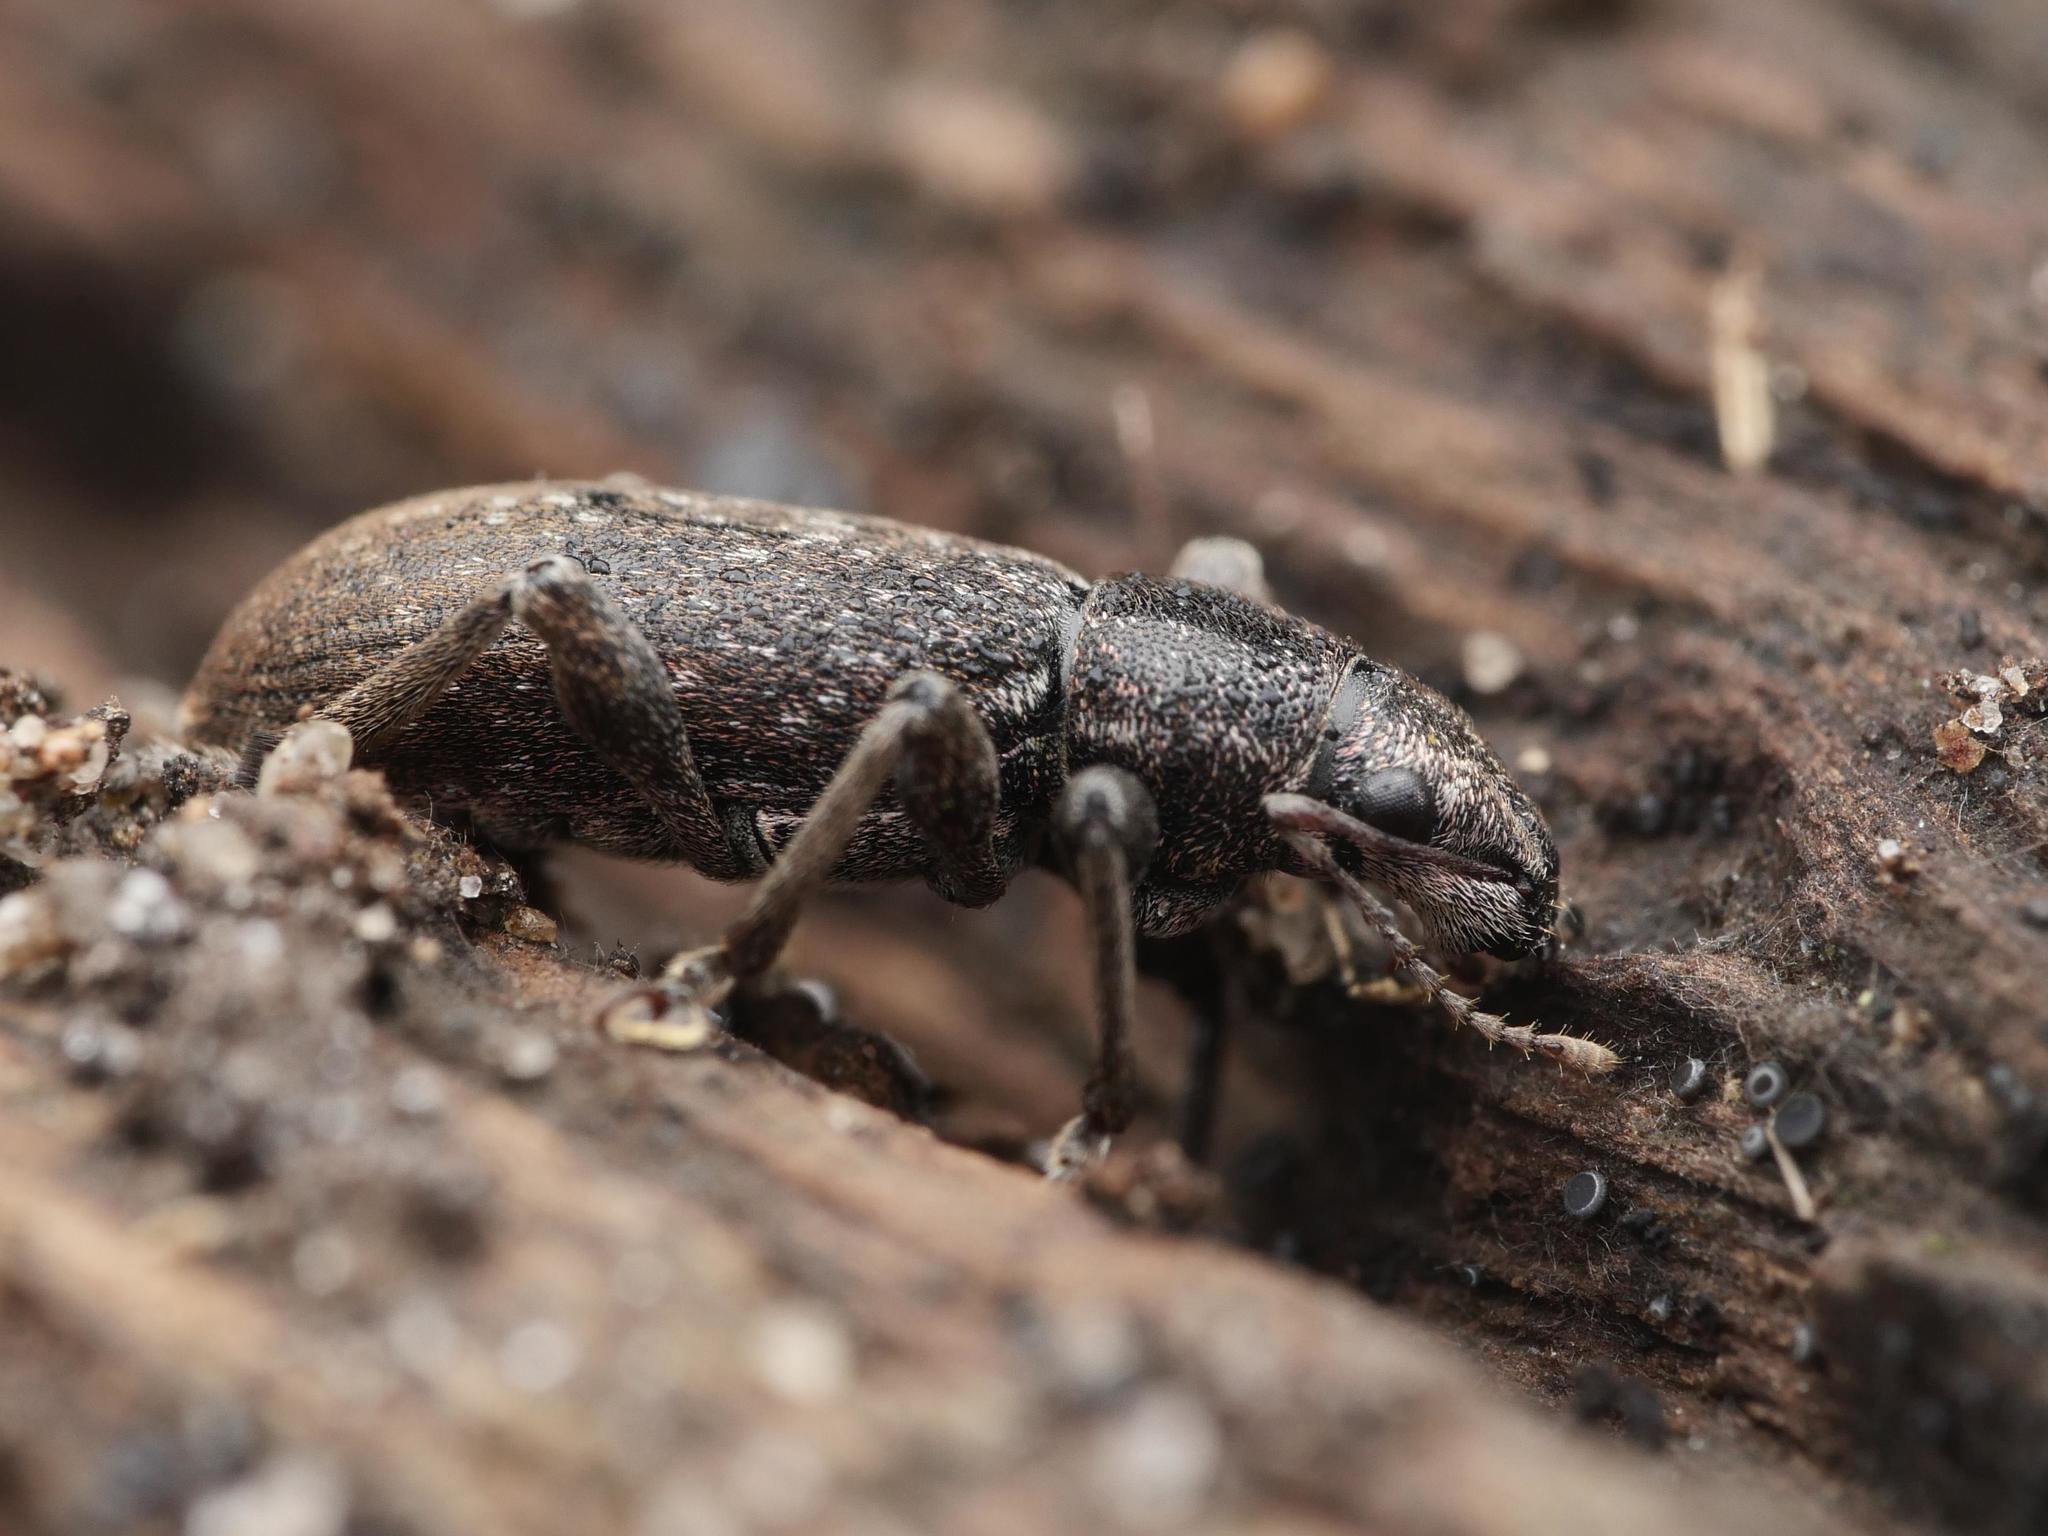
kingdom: Animalia
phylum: Arthropoda
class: Insecta
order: Coleoptera
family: Curculionidae
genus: Brachyderes
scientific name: Brachyderes incanus
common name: Weevil
